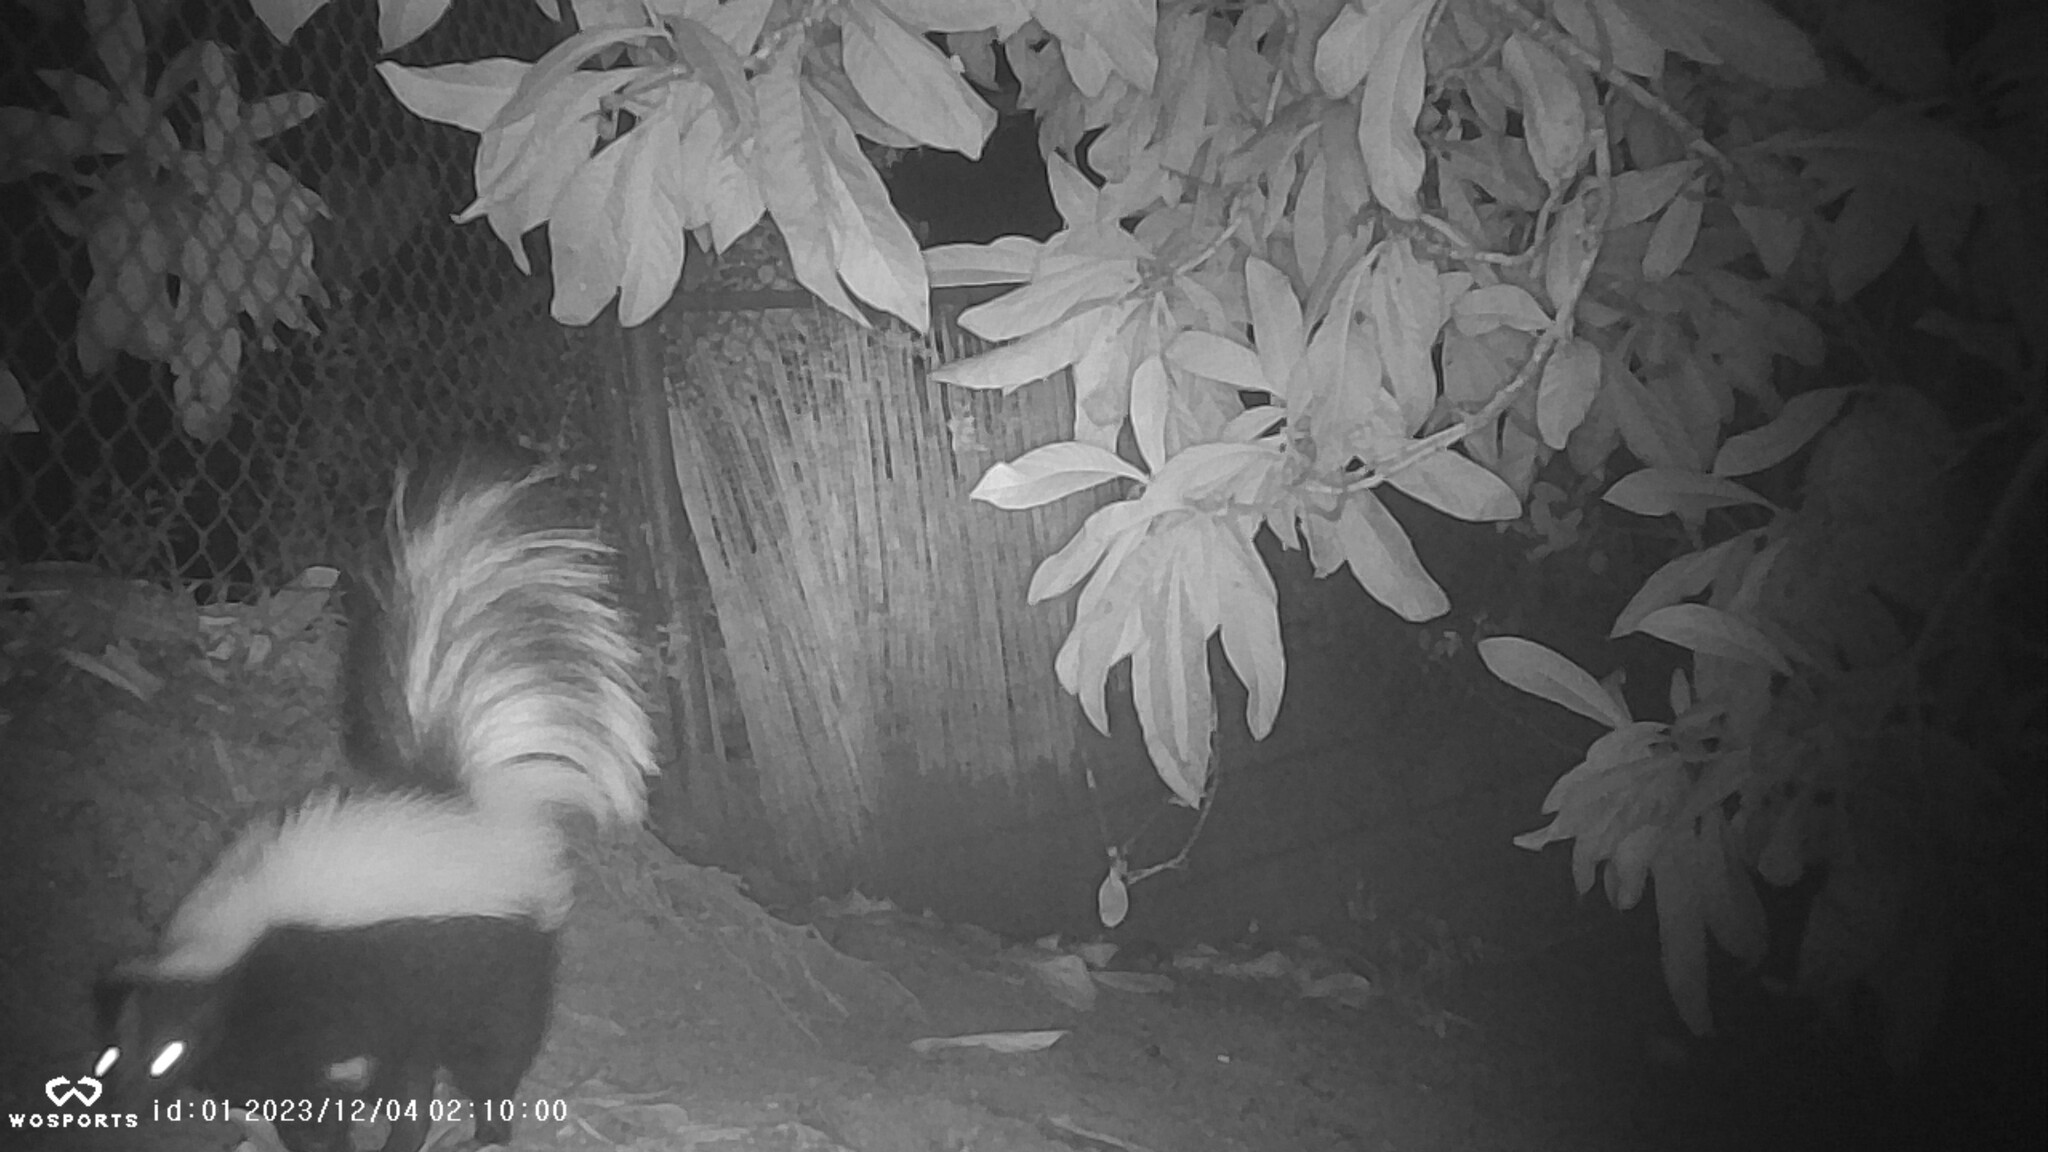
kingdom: Animalia
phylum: Chordata
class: Mammalia
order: Carnivora
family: Mephitidae
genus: Mephitis
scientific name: Mephitis mephitis
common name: Striped skunk
